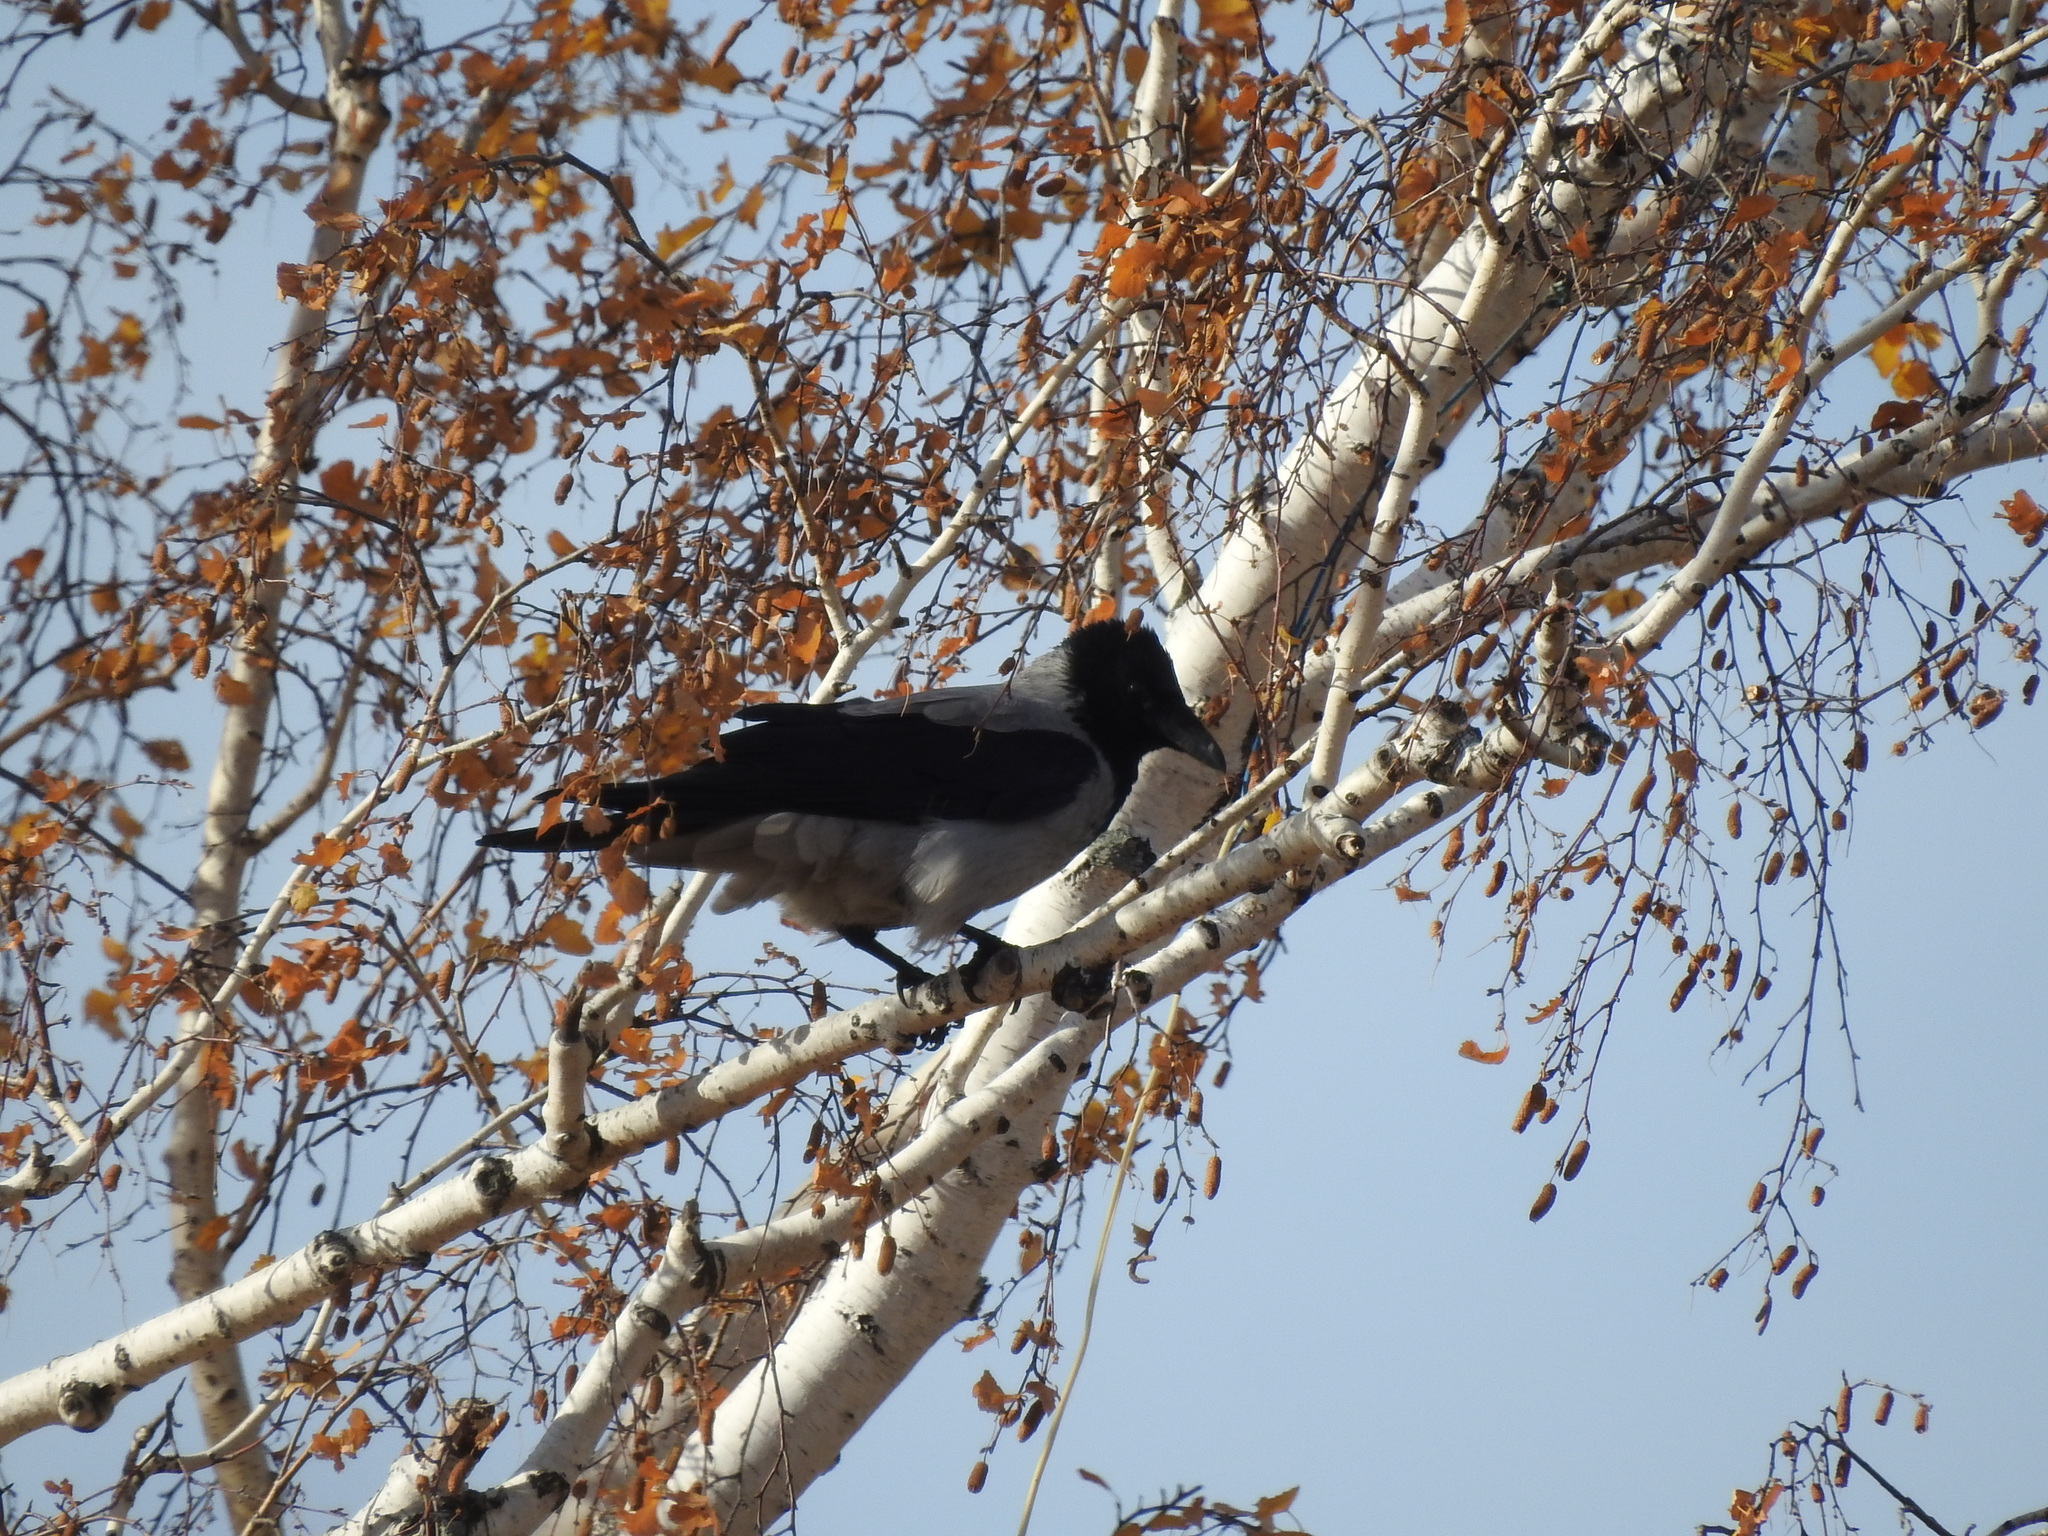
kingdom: Animalia
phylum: Chordata
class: Aves
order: Passeriformes
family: Corvidae
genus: Corvus
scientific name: Corvus cornix
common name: Hooded crow
